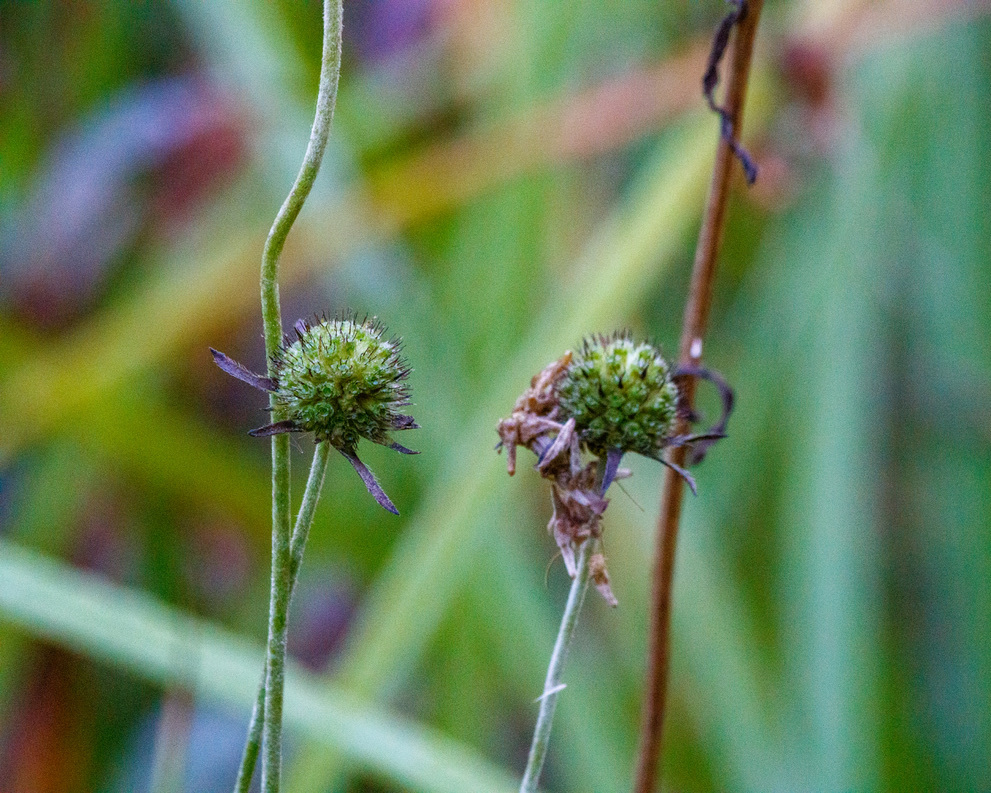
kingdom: Plantae
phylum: Tracheophyta
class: Magnoliopsida
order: Dipsacales
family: Caprifoliaceae
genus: Succisa
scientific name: Succisa pratensis
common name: Devil's-bit
